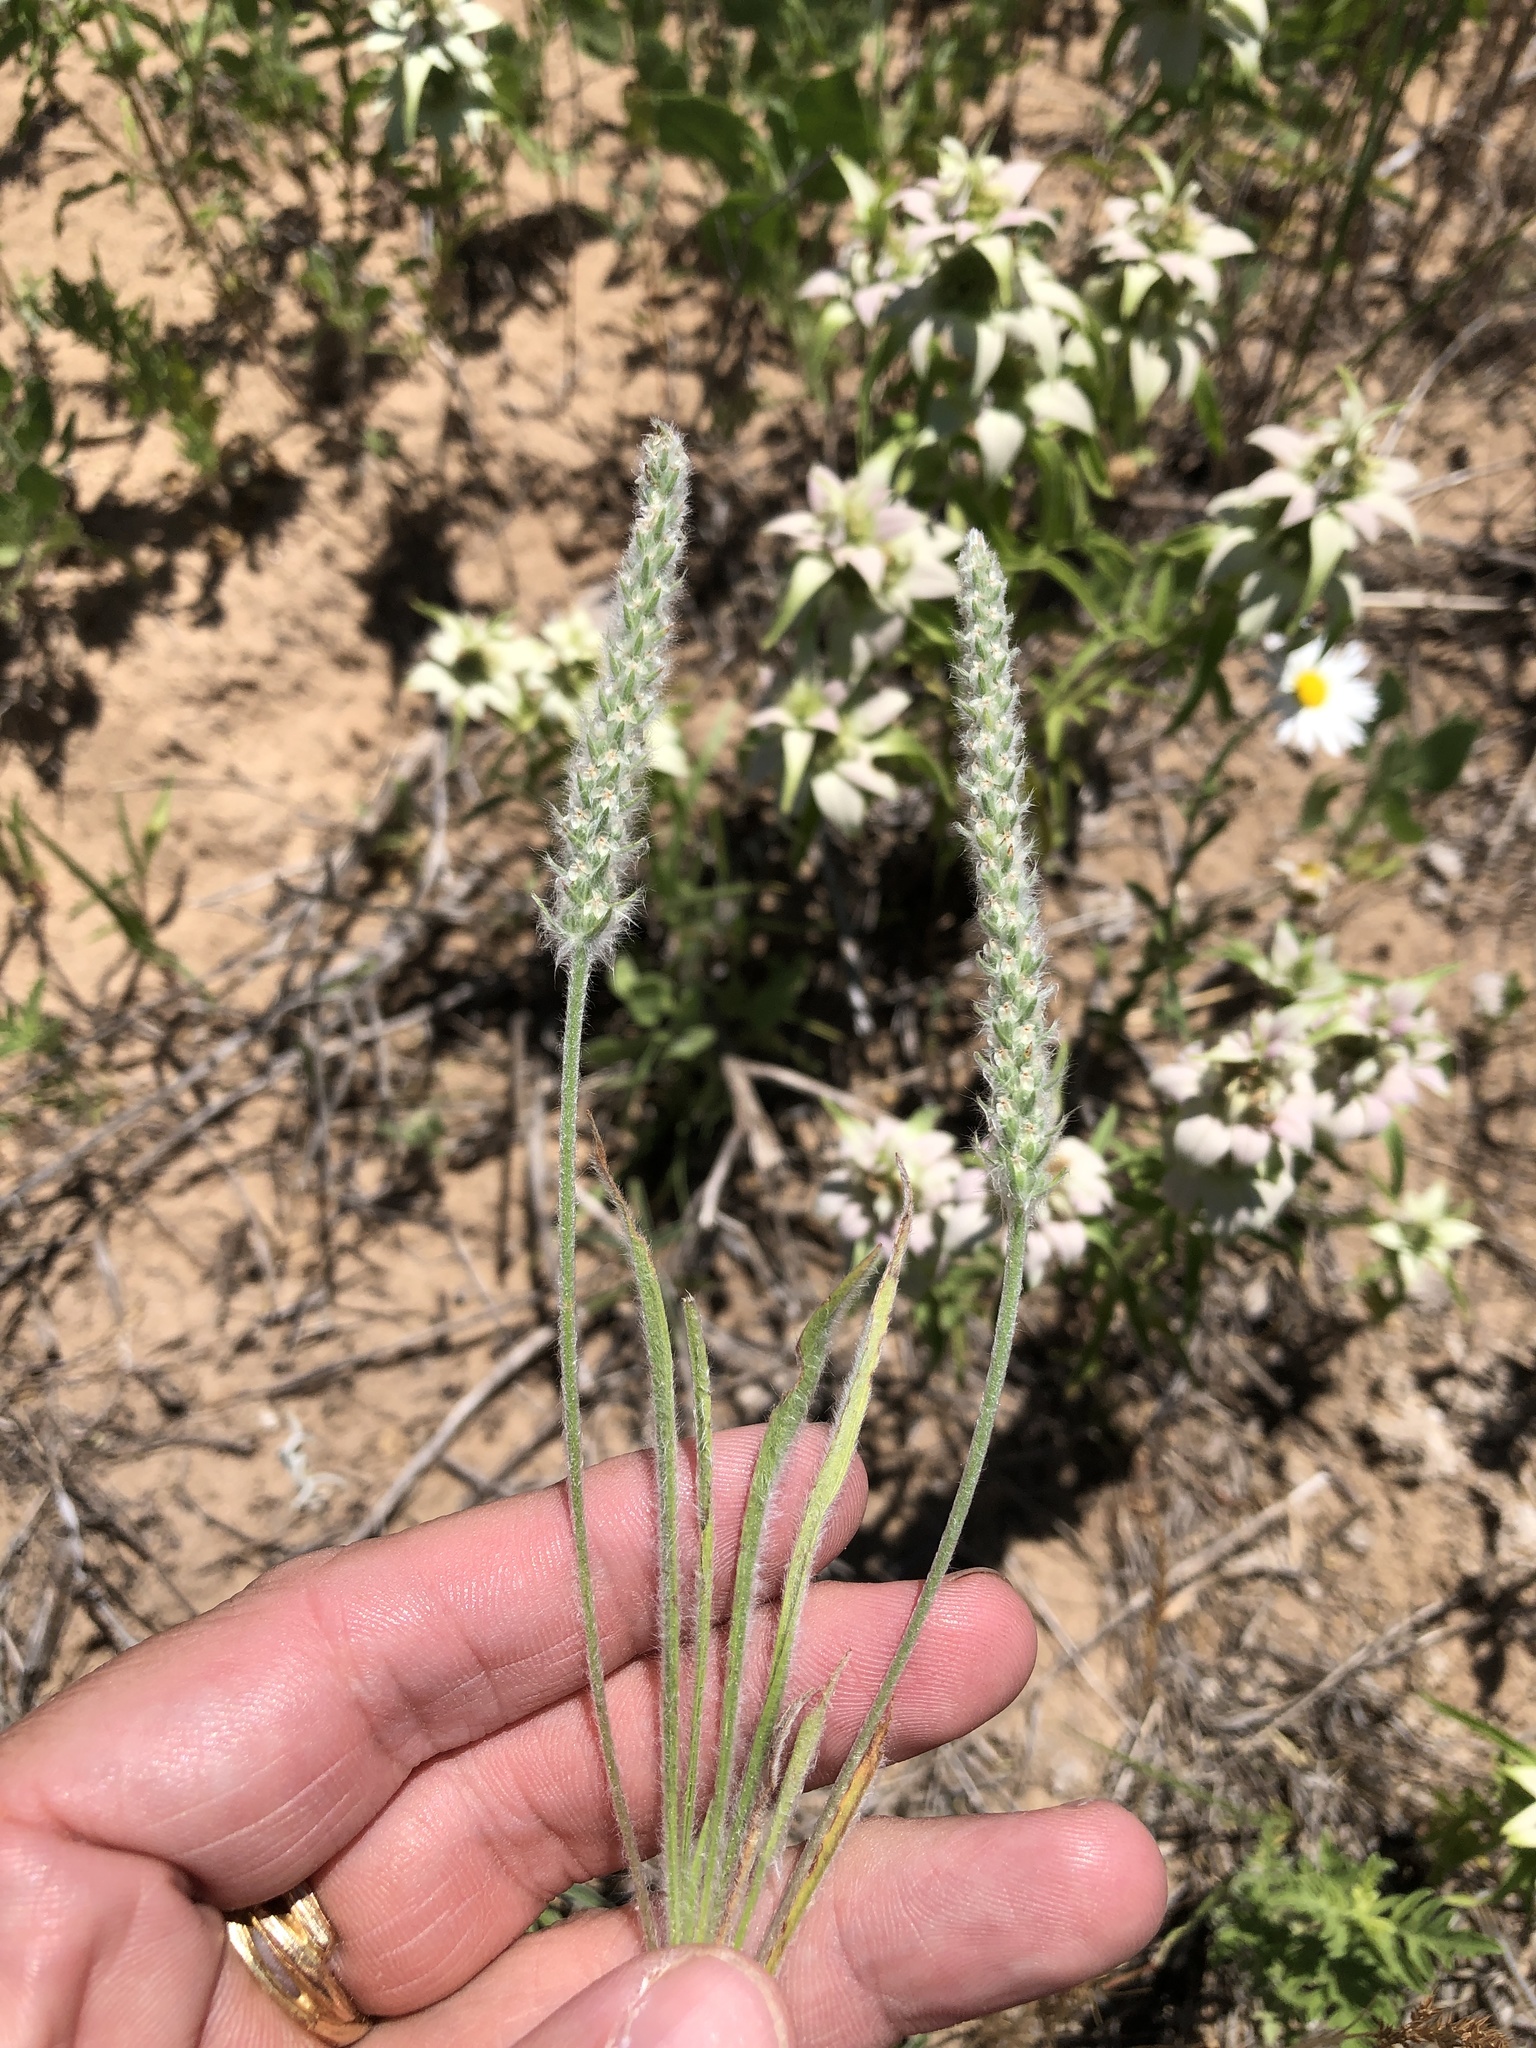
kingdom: Plantae
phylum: Tracheophyta
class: Magnoliopsida
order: Lamiales
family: Plantaginaceae
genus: Plantago
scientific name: Plantago patagonica
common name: Patagonia indian-wheat
